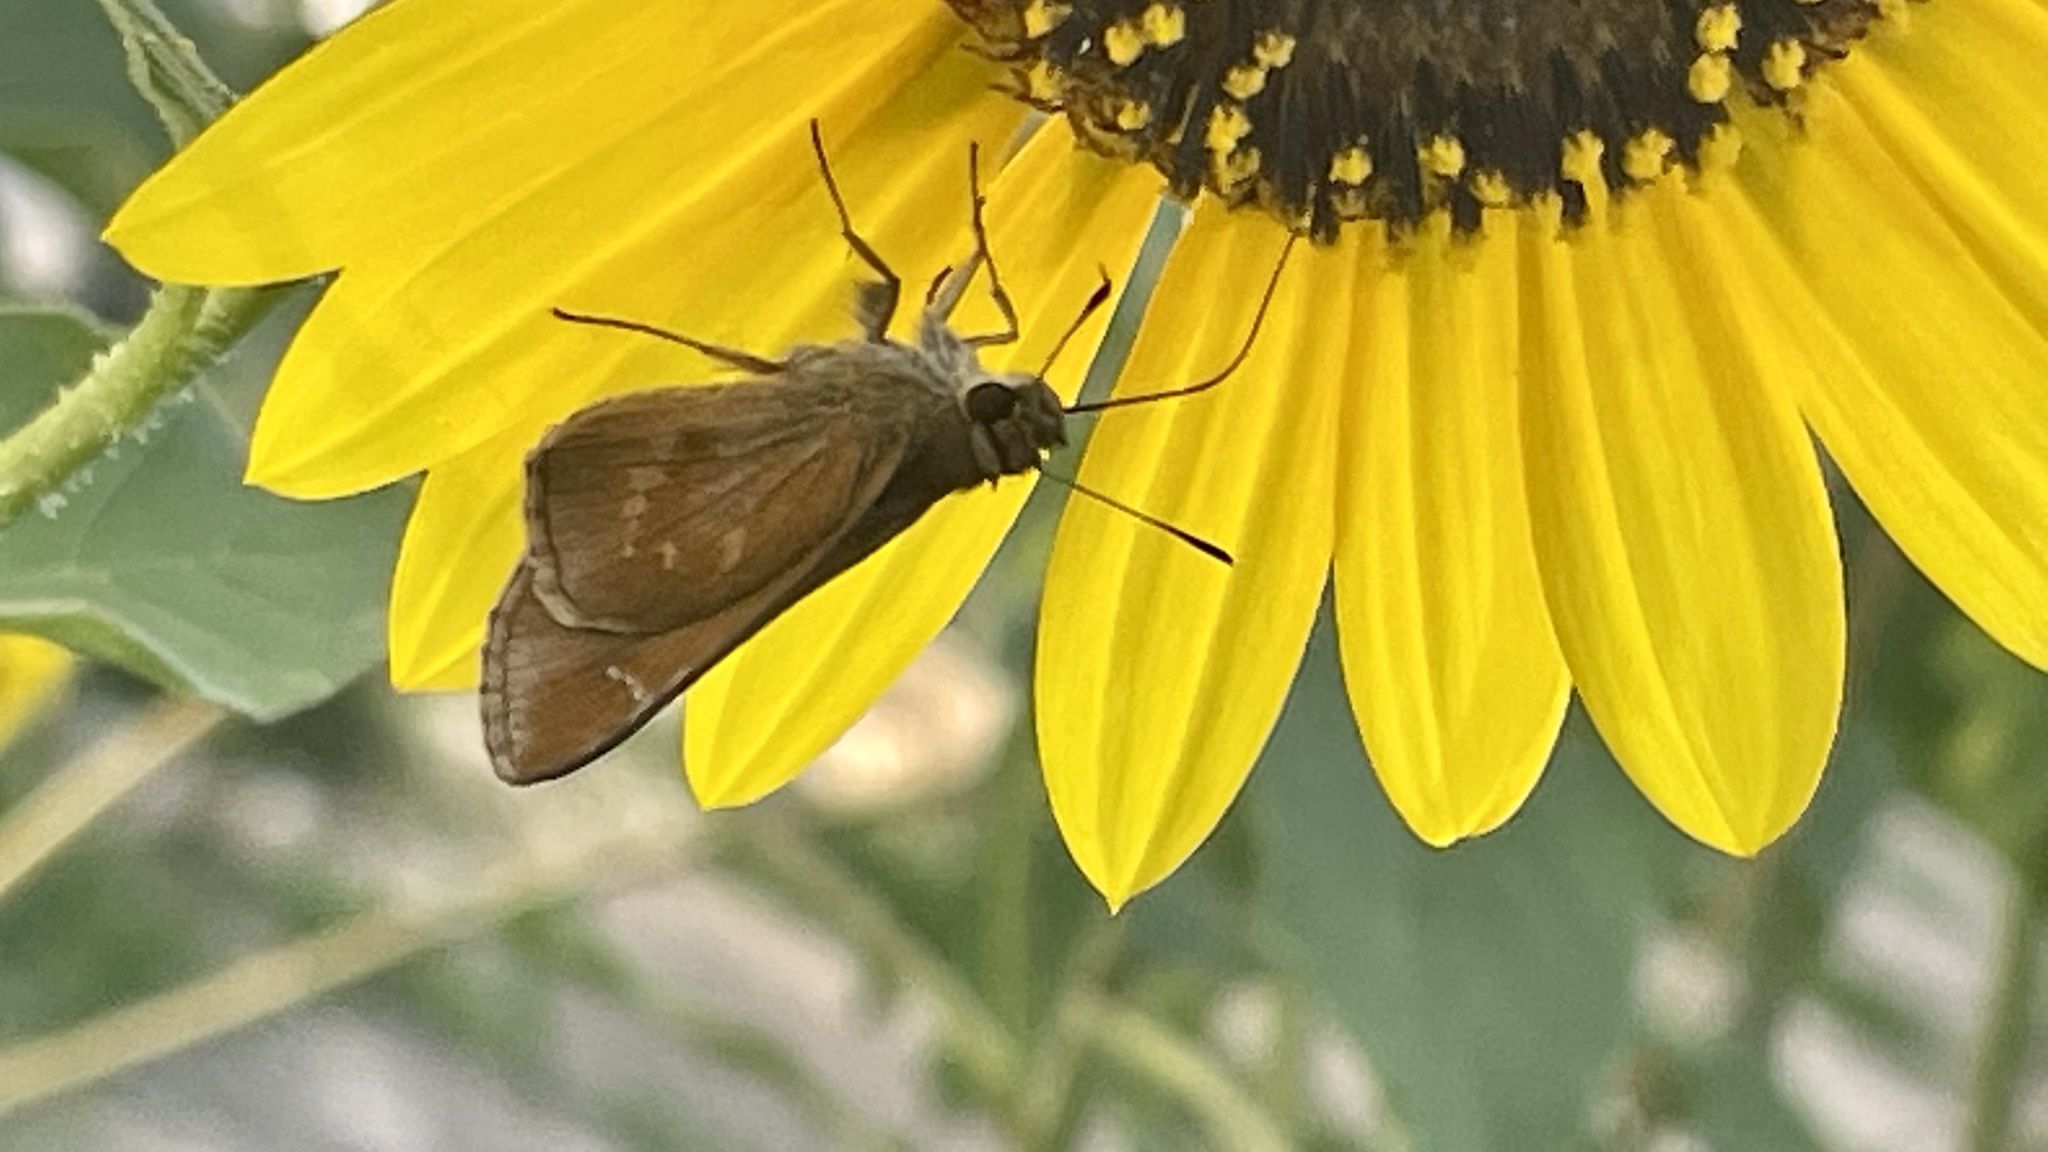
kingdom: Animalia
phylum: Arthropoda
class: Insecta
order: Lepidoptera
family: Hesperiidae
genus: Lerema
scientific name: Lerema accius
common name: Clouded skipper
